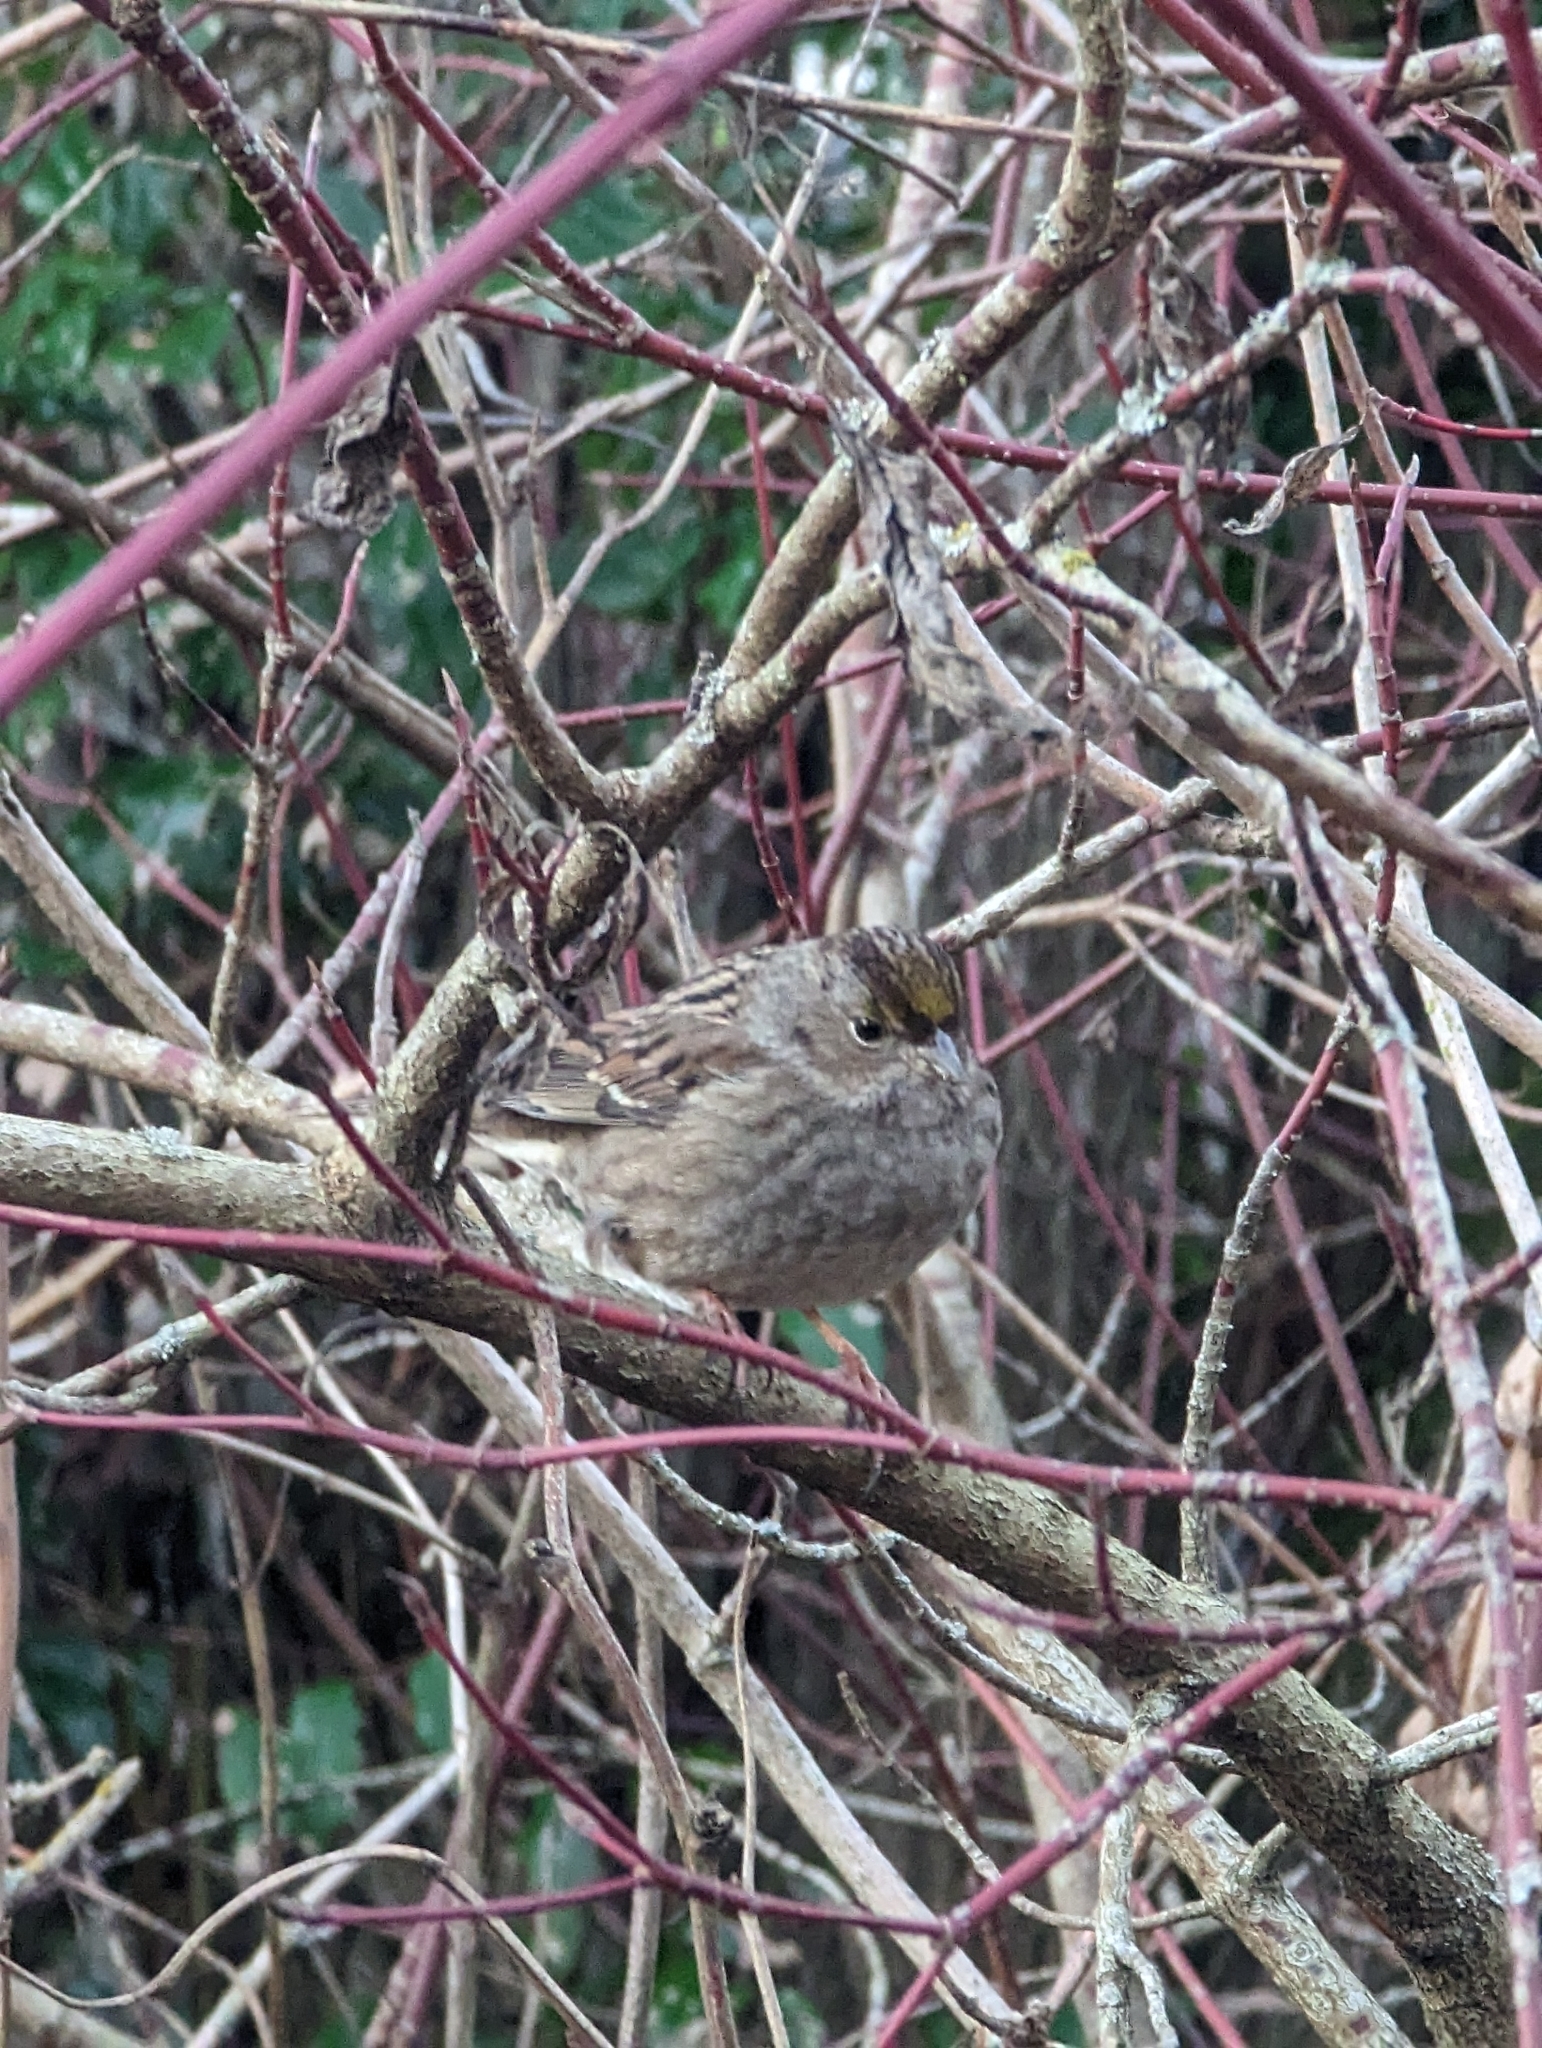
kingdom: Animalia
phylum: Chordata
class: Aves
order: Passeriformes
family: Passerellidae
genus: Zonotrichia
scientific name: Zonotrichia atricapilla
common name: Golden-crowned sparrow
